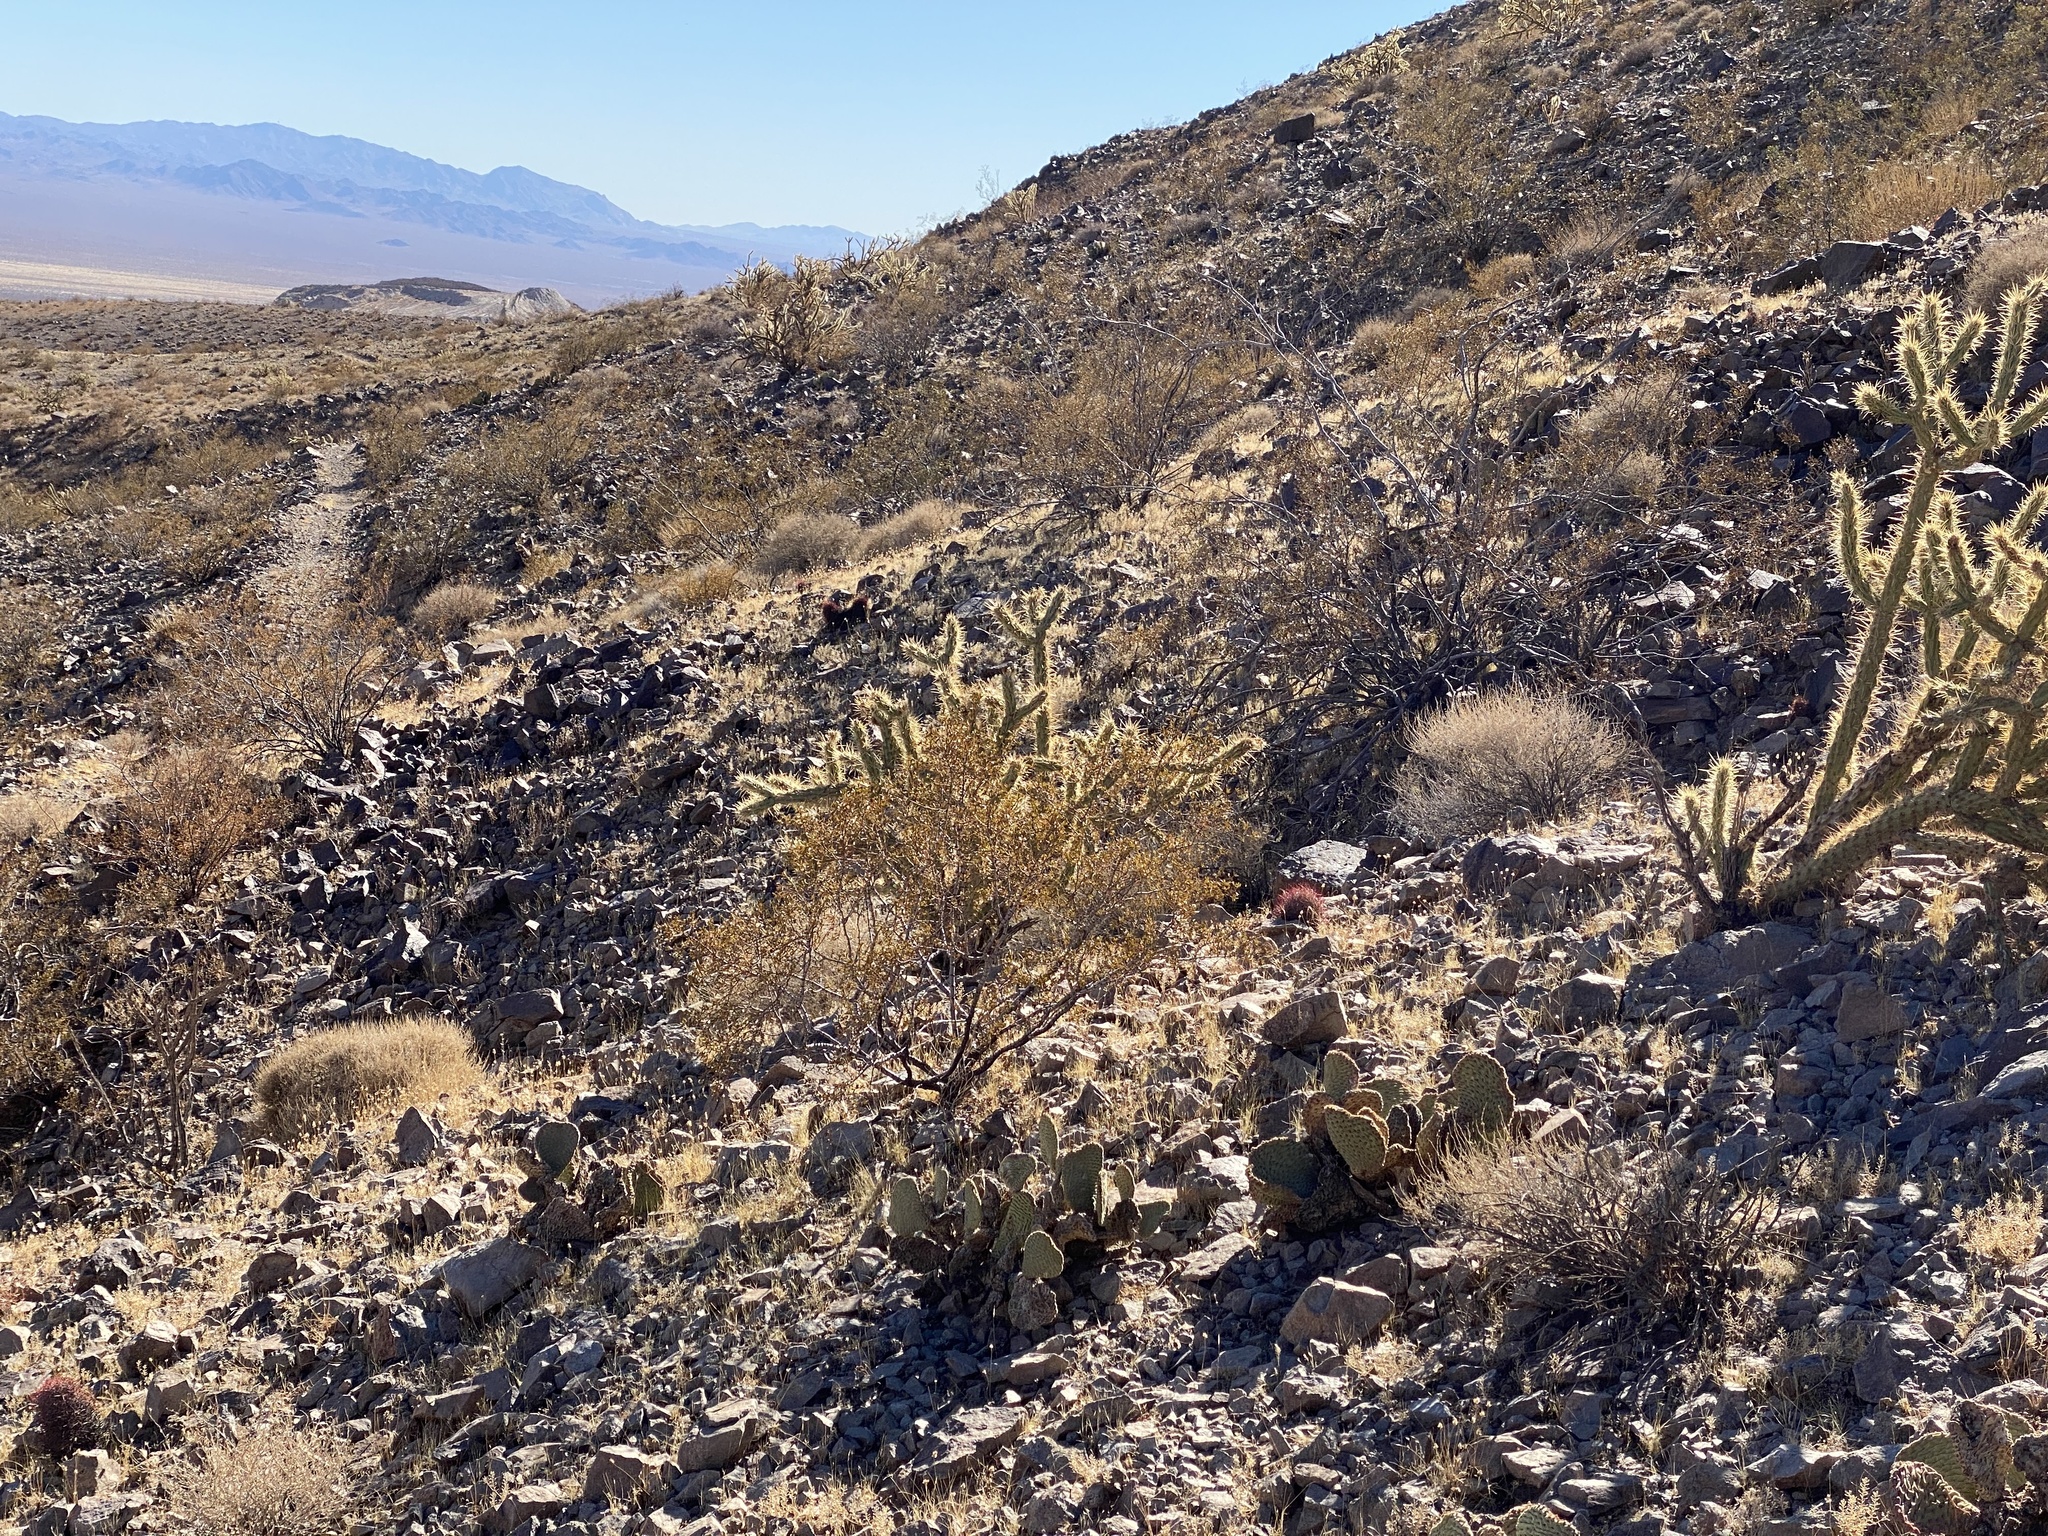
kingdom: Plantae
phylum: Tracheophyta
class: Magnoliopsida
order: Zygophyllales
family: Zygophyllaceae
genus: Larrea
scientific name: Larrea tridentata
